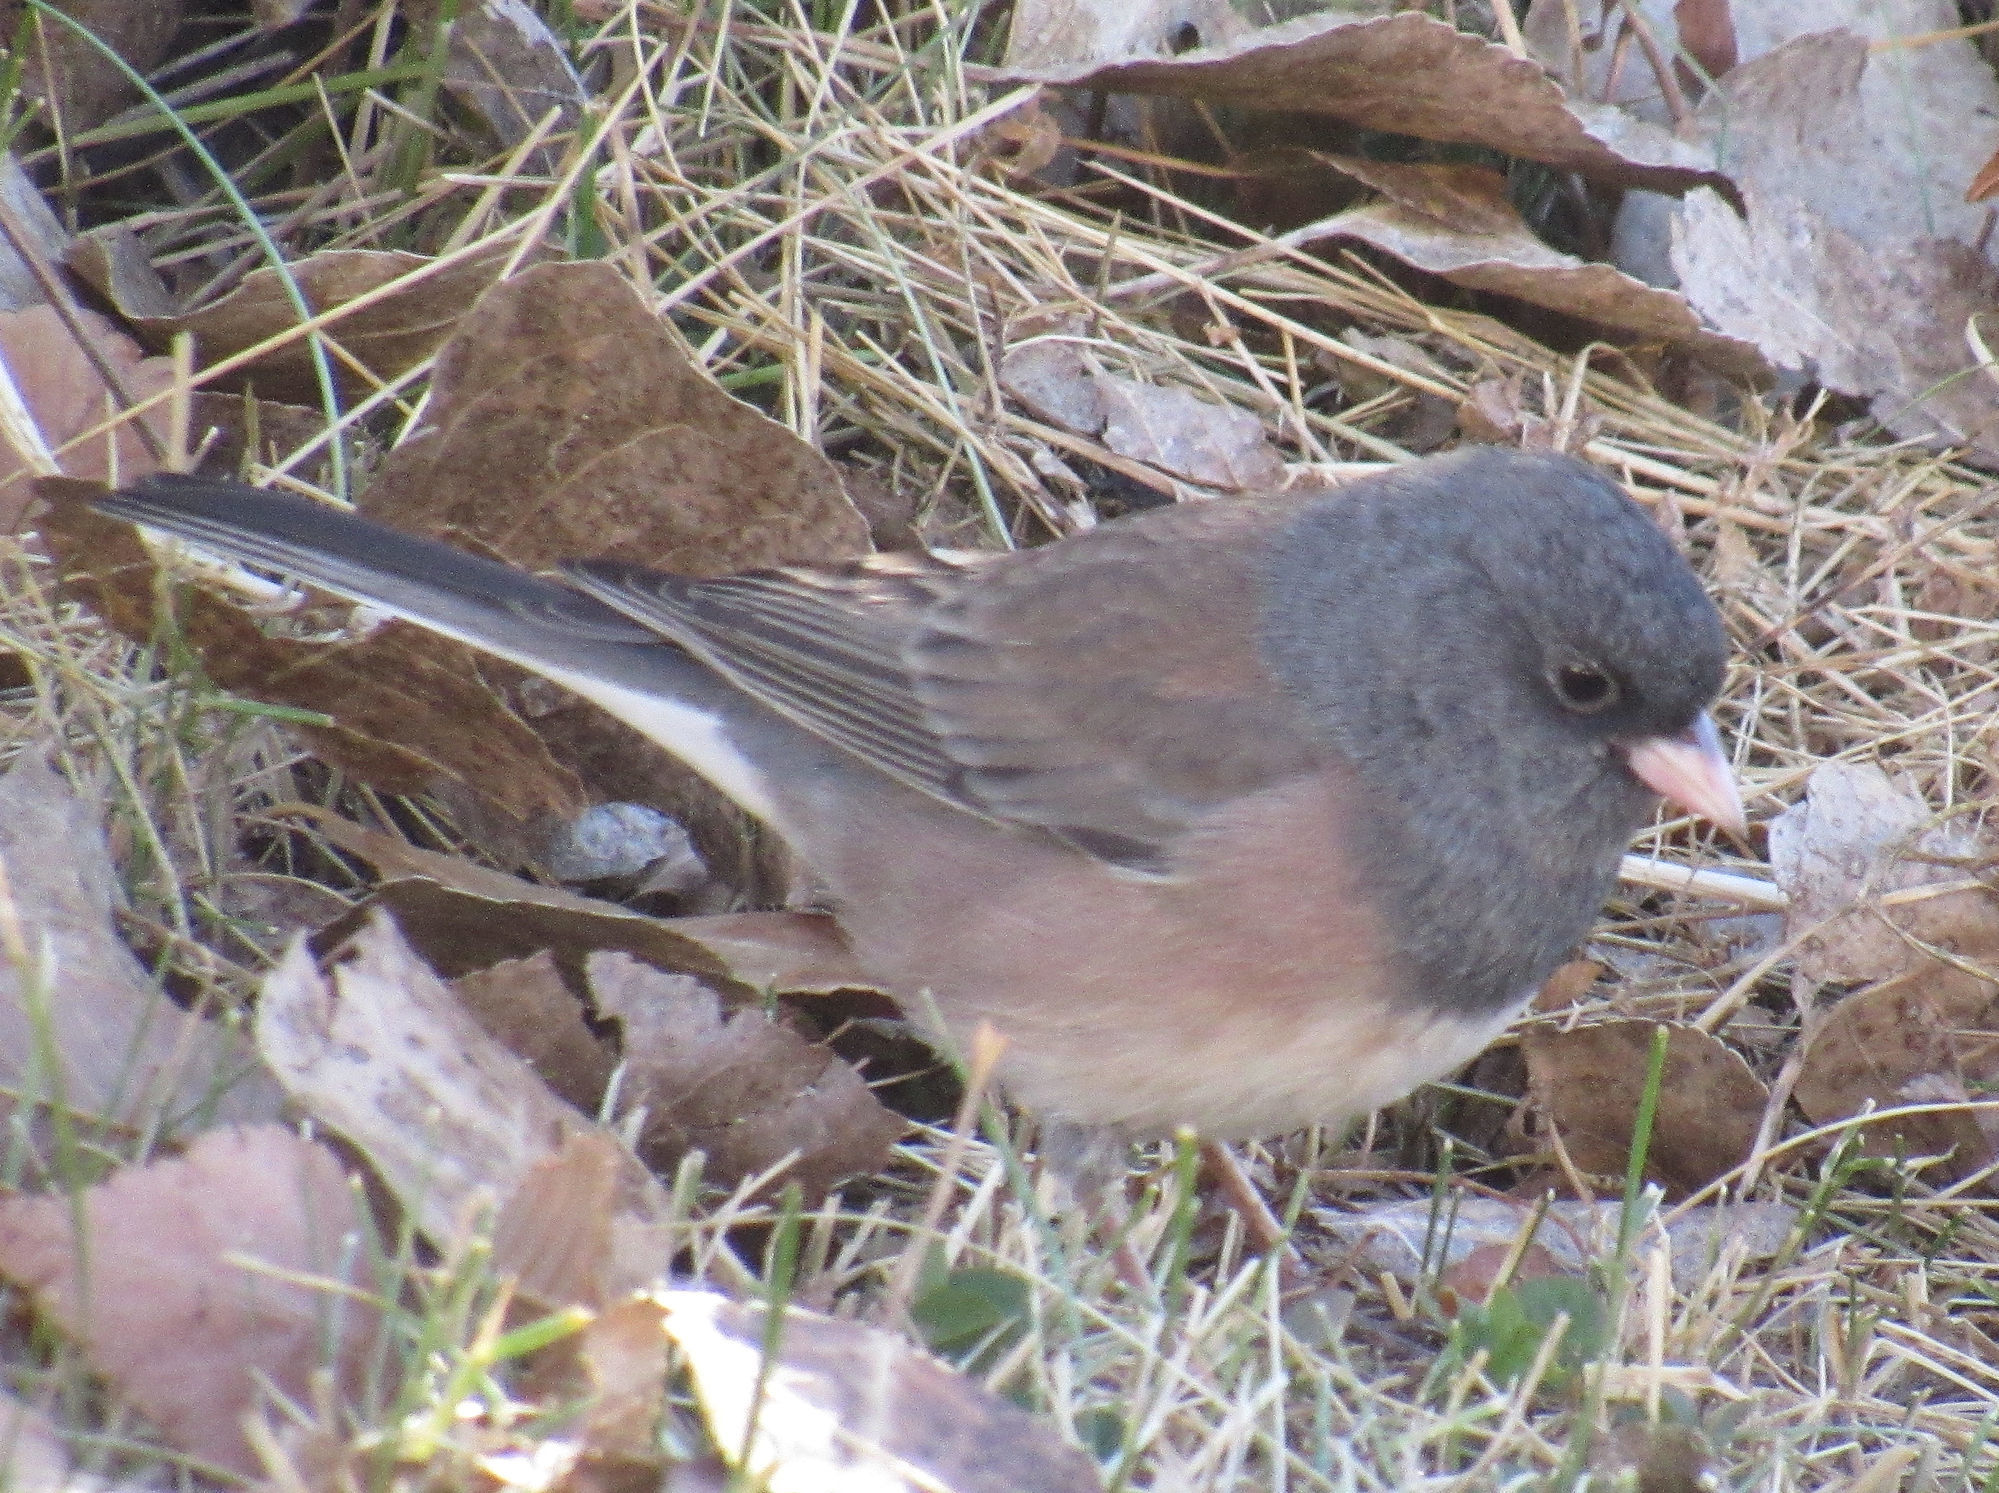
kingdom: Animalia
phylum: Chordata
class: Aves
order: Passeriformes
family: Passerellidae
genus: Junco
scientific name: Junco hyemalis
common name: Dark-eyed junco
